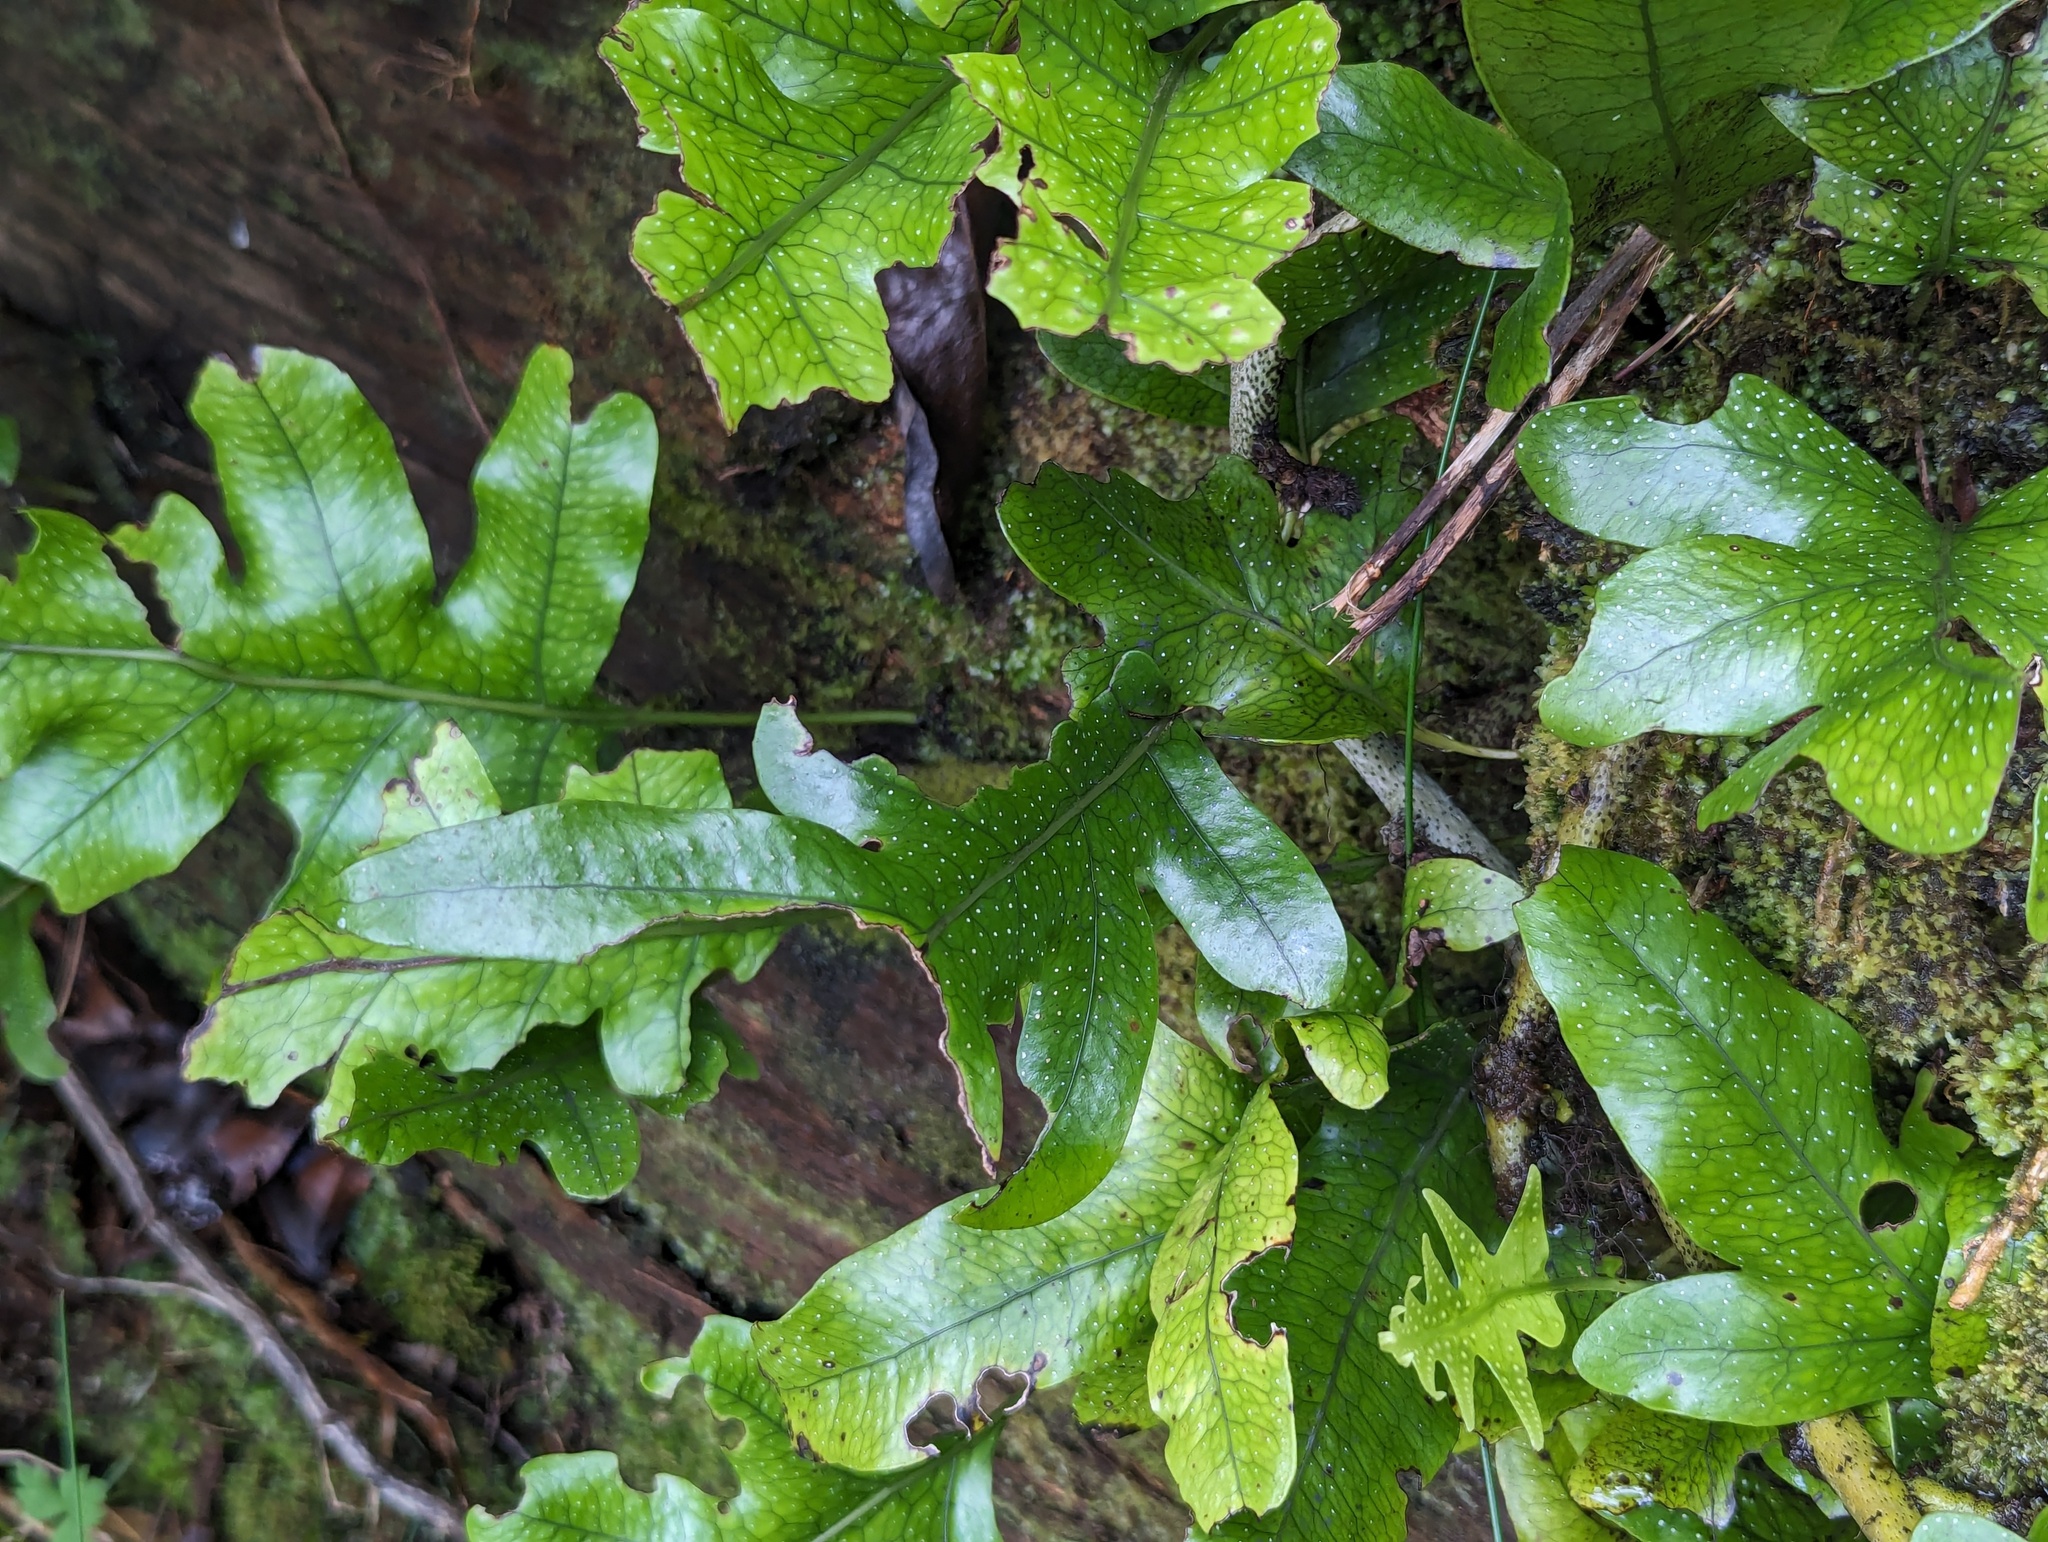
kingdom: Plantae
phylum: Tracheophyta
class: Polypodiopsida
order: Polypodiales
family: Polypodiaceae
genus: Lecanopteris
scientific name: Lecanopteris pustulata
